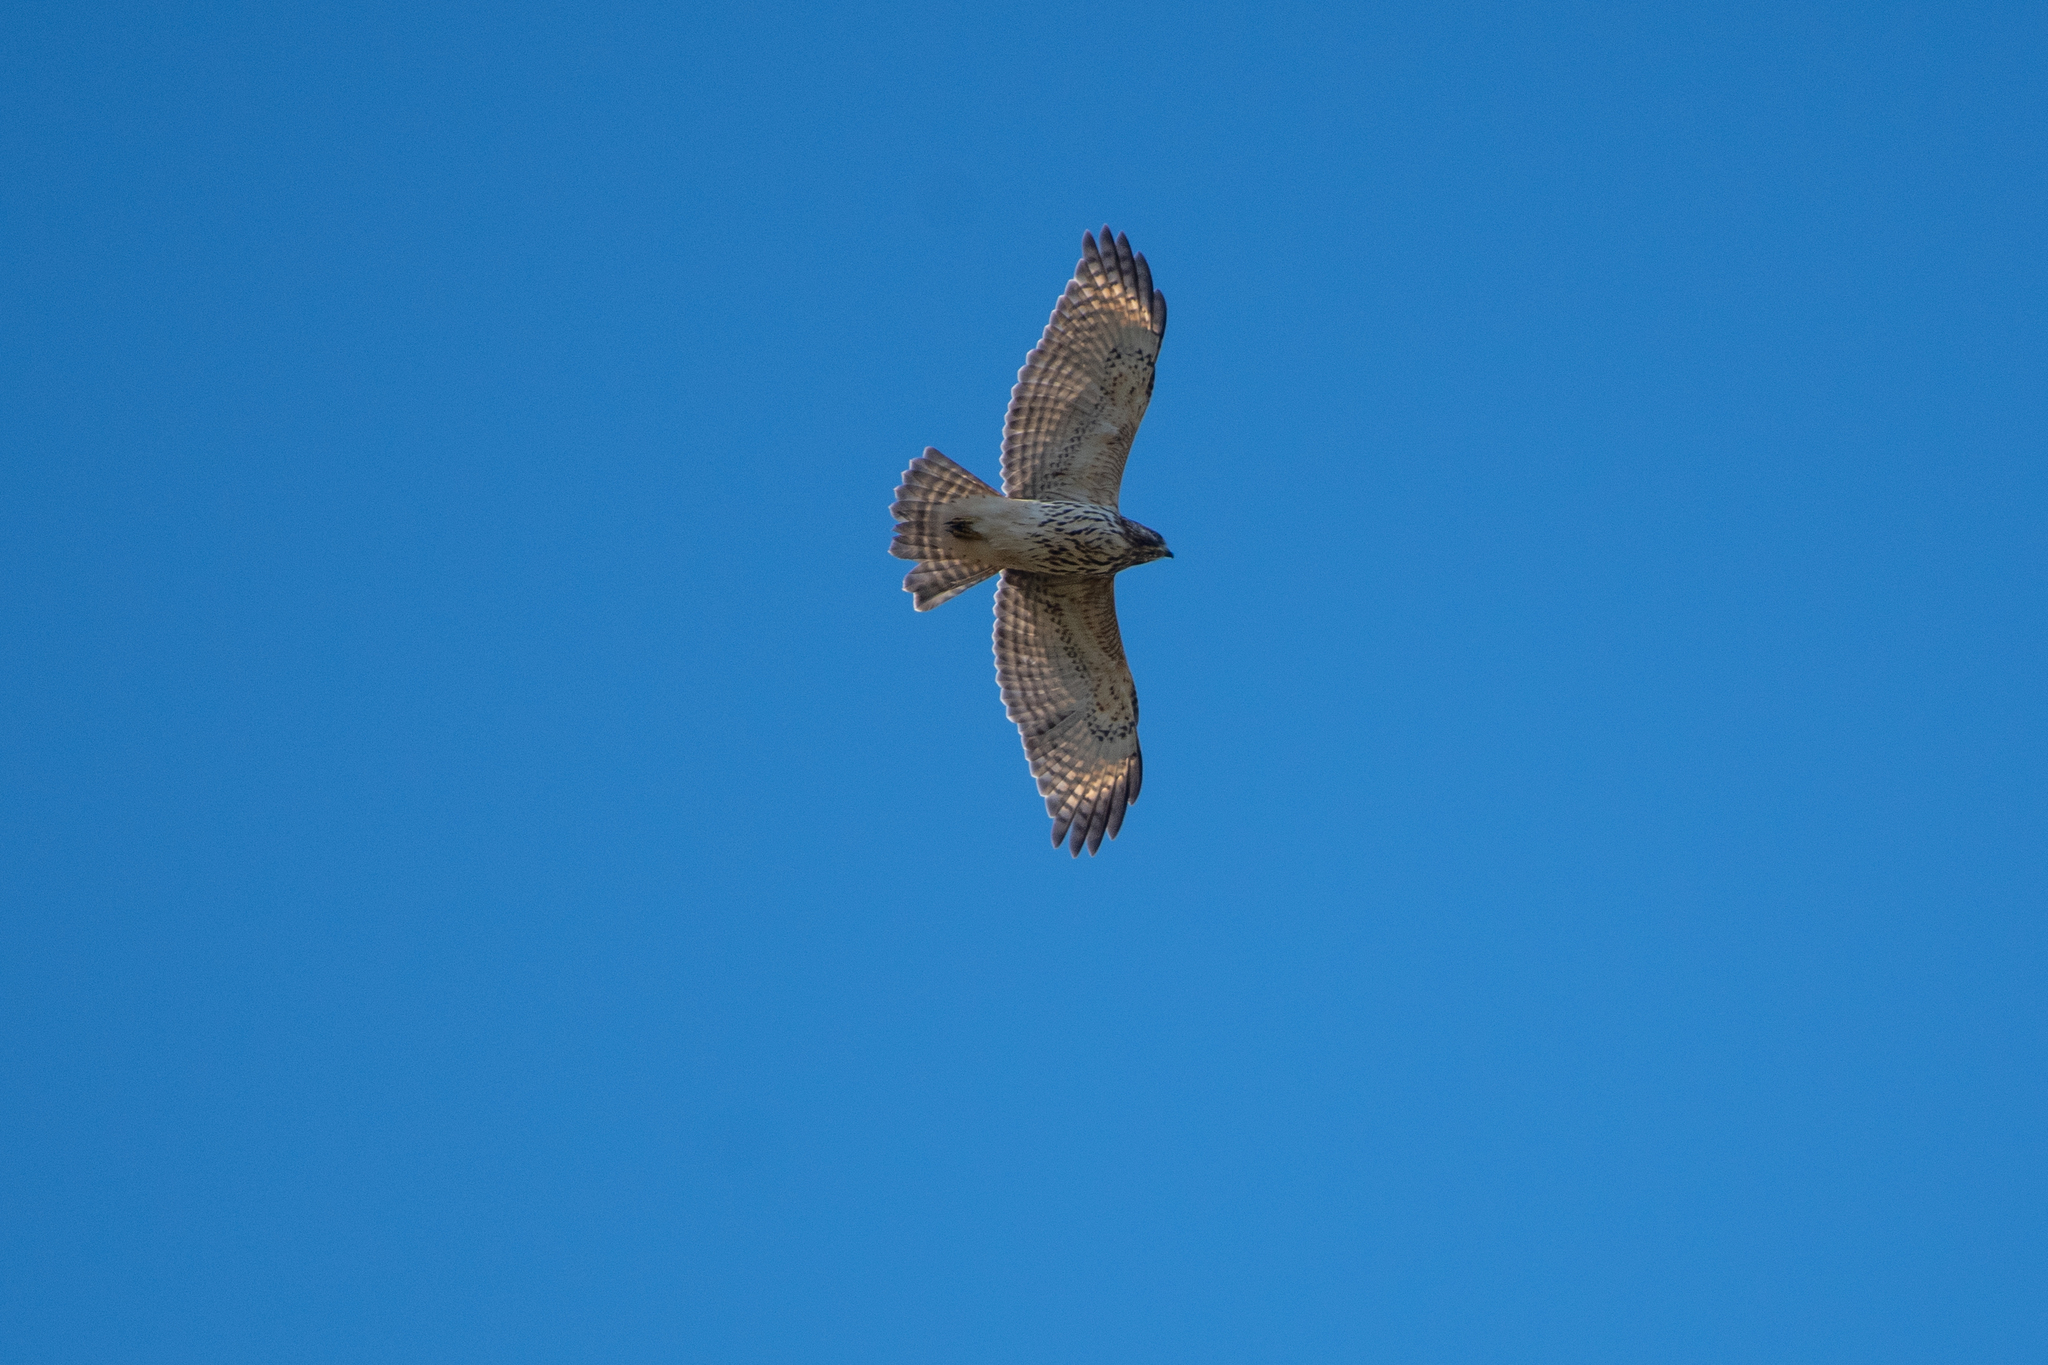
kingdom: Animalia
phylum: Chordata
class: Aves
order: Accipitriformes
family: Accipitridae
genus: Buteo
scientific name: Buteo lineatus
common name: Red-shouldered hawk
